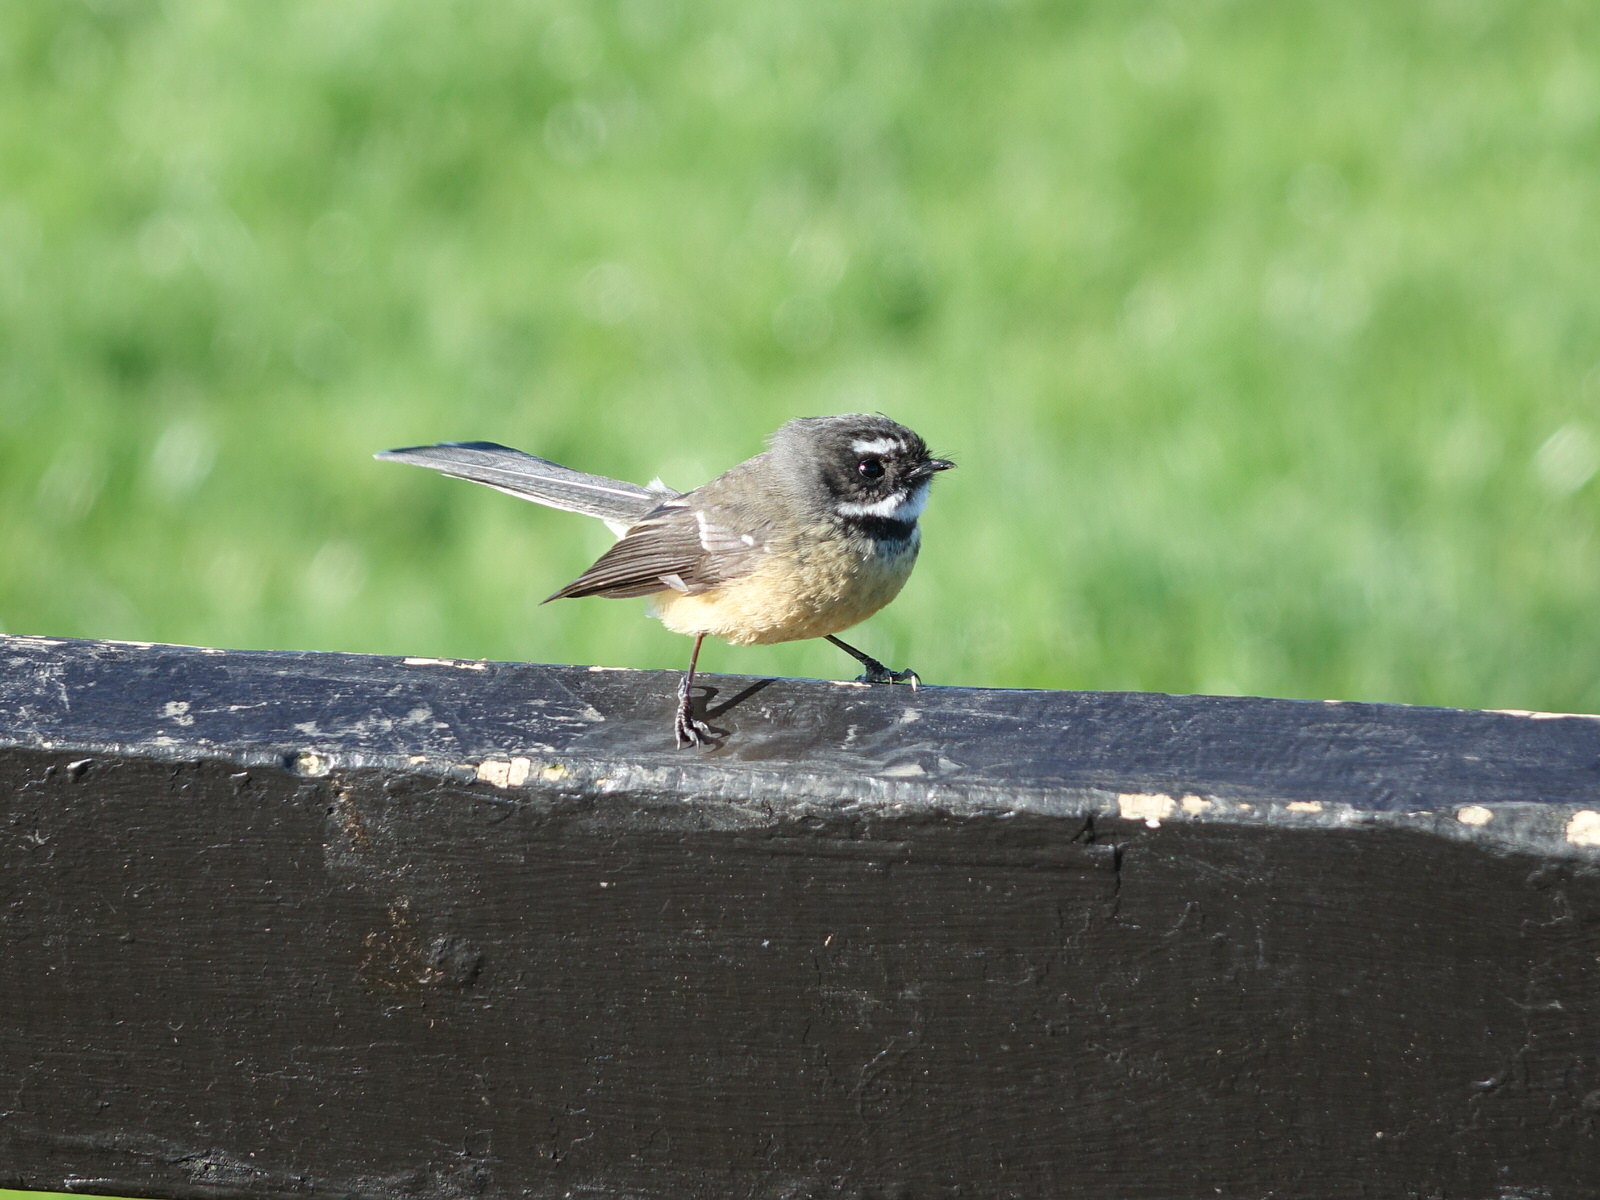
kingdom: Animalia
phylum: Chordata
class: Aves
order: Passeriformes
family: Rhipiduridae
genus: Rhipidura
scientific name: Rhipidura fuliginosa
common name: New zealand fantail
